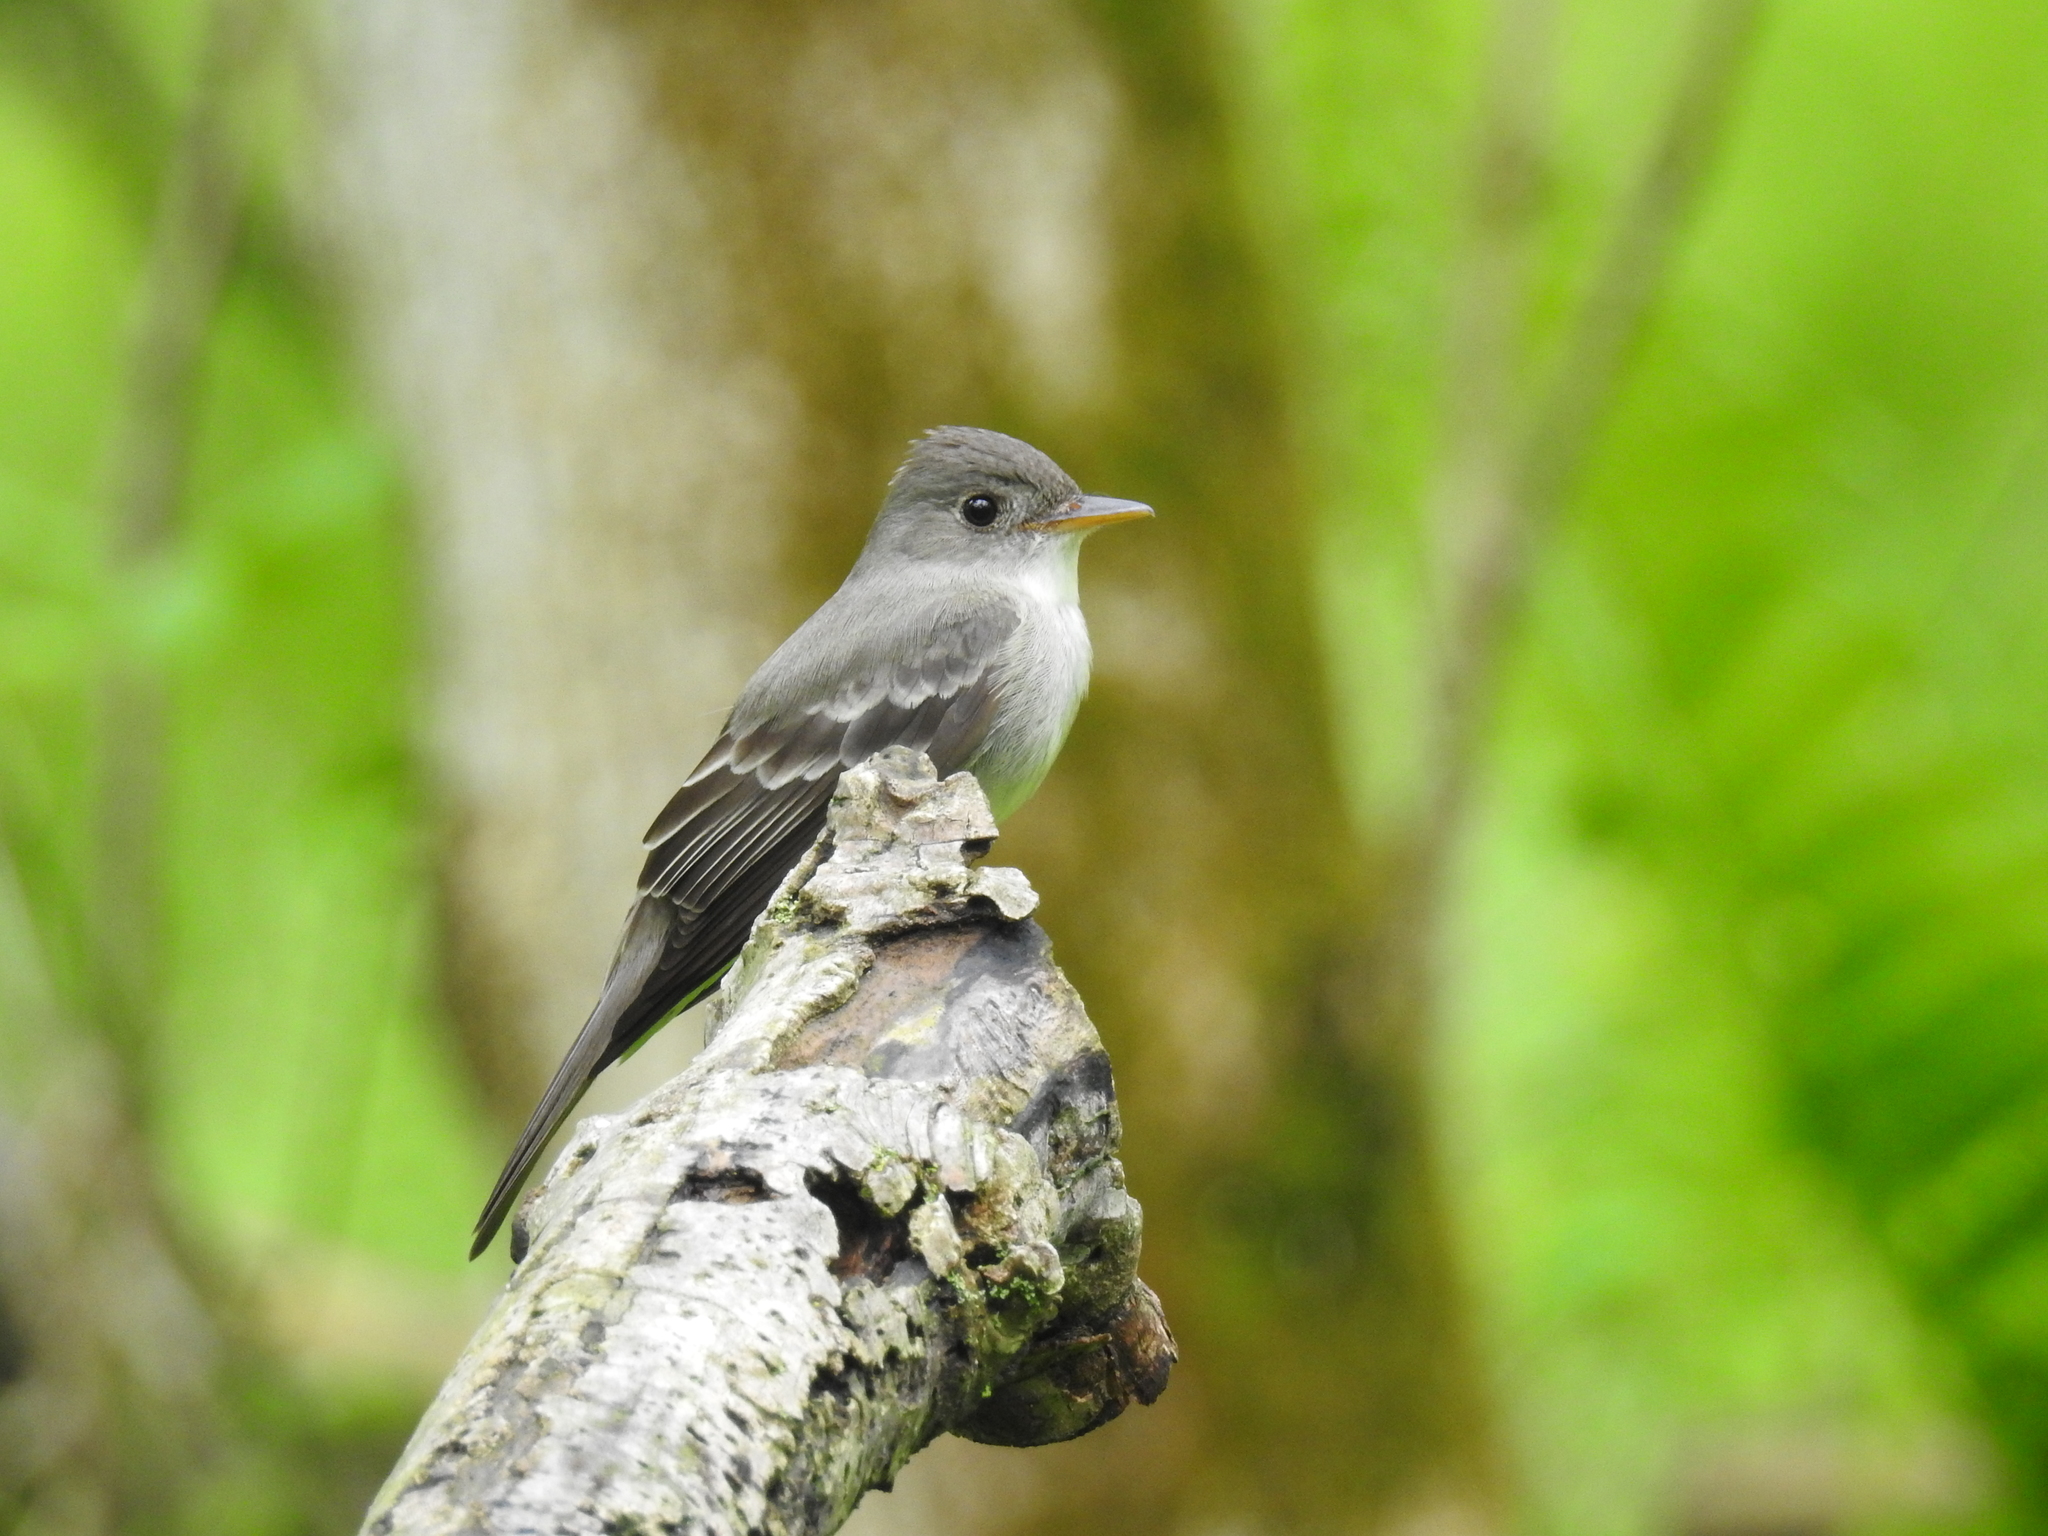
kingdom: Animalia
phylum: Chordata
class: Aves
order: Passeriformes
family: Tyrannidae
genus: Contopus
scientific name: Contopus virens
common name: Eastern wood-pewee
